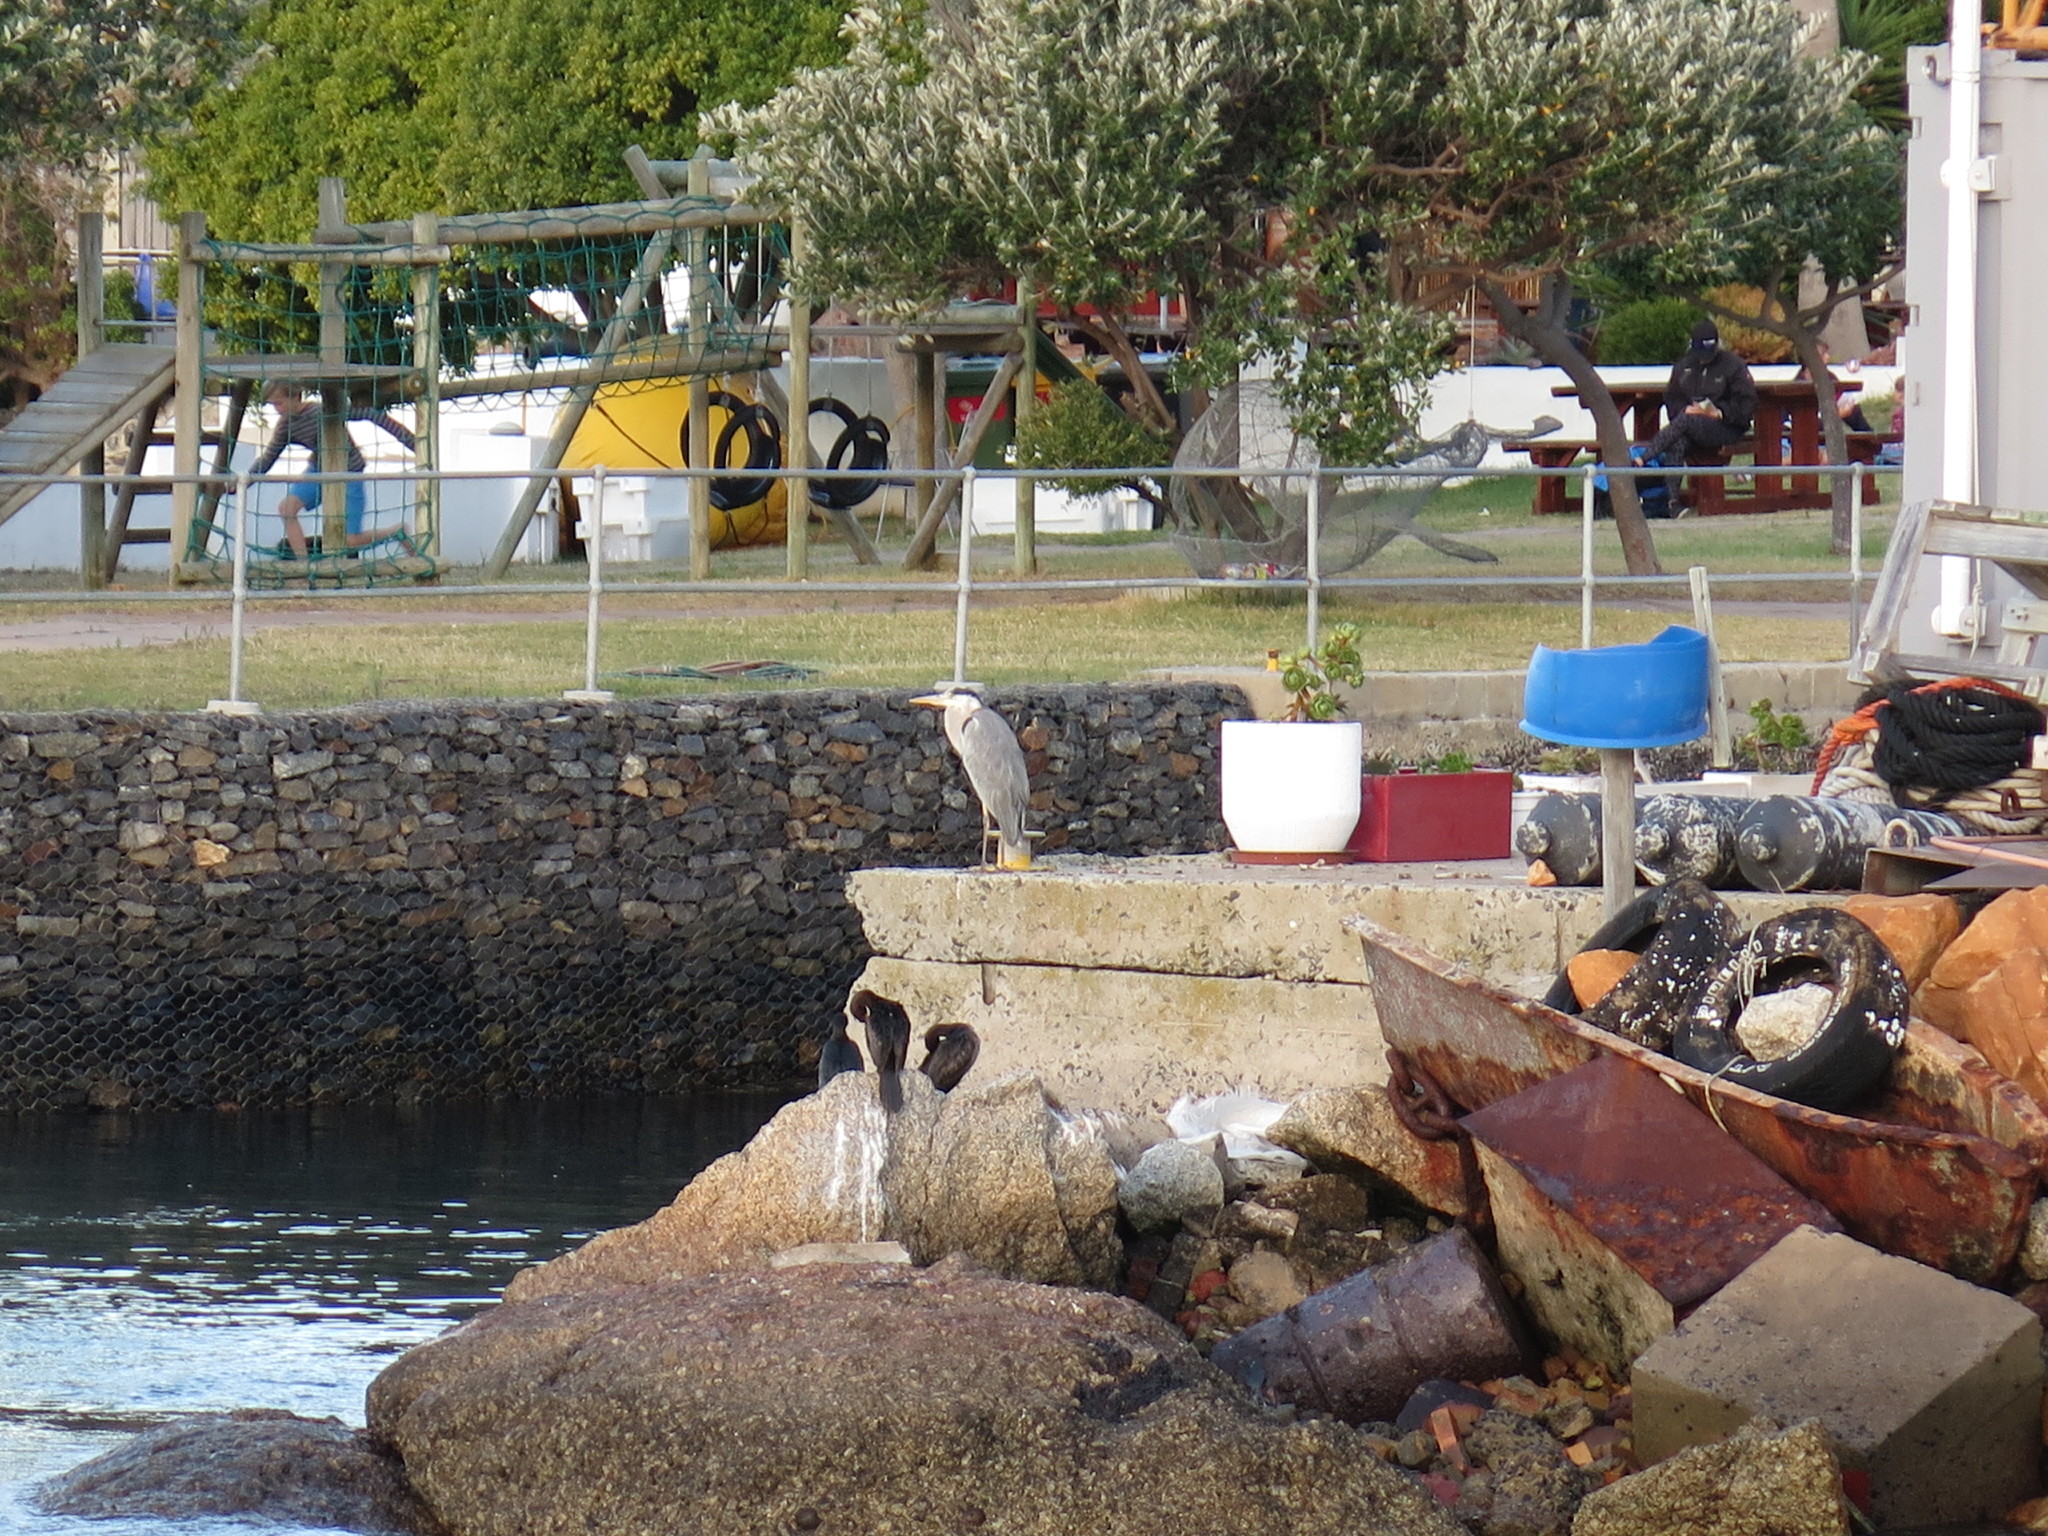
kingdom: Animalia
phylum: Chordata
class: Aves
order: Pelecaniformes
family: Ardeidae
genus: Ardea
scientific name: Ardea cinerea
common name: Grey heron
